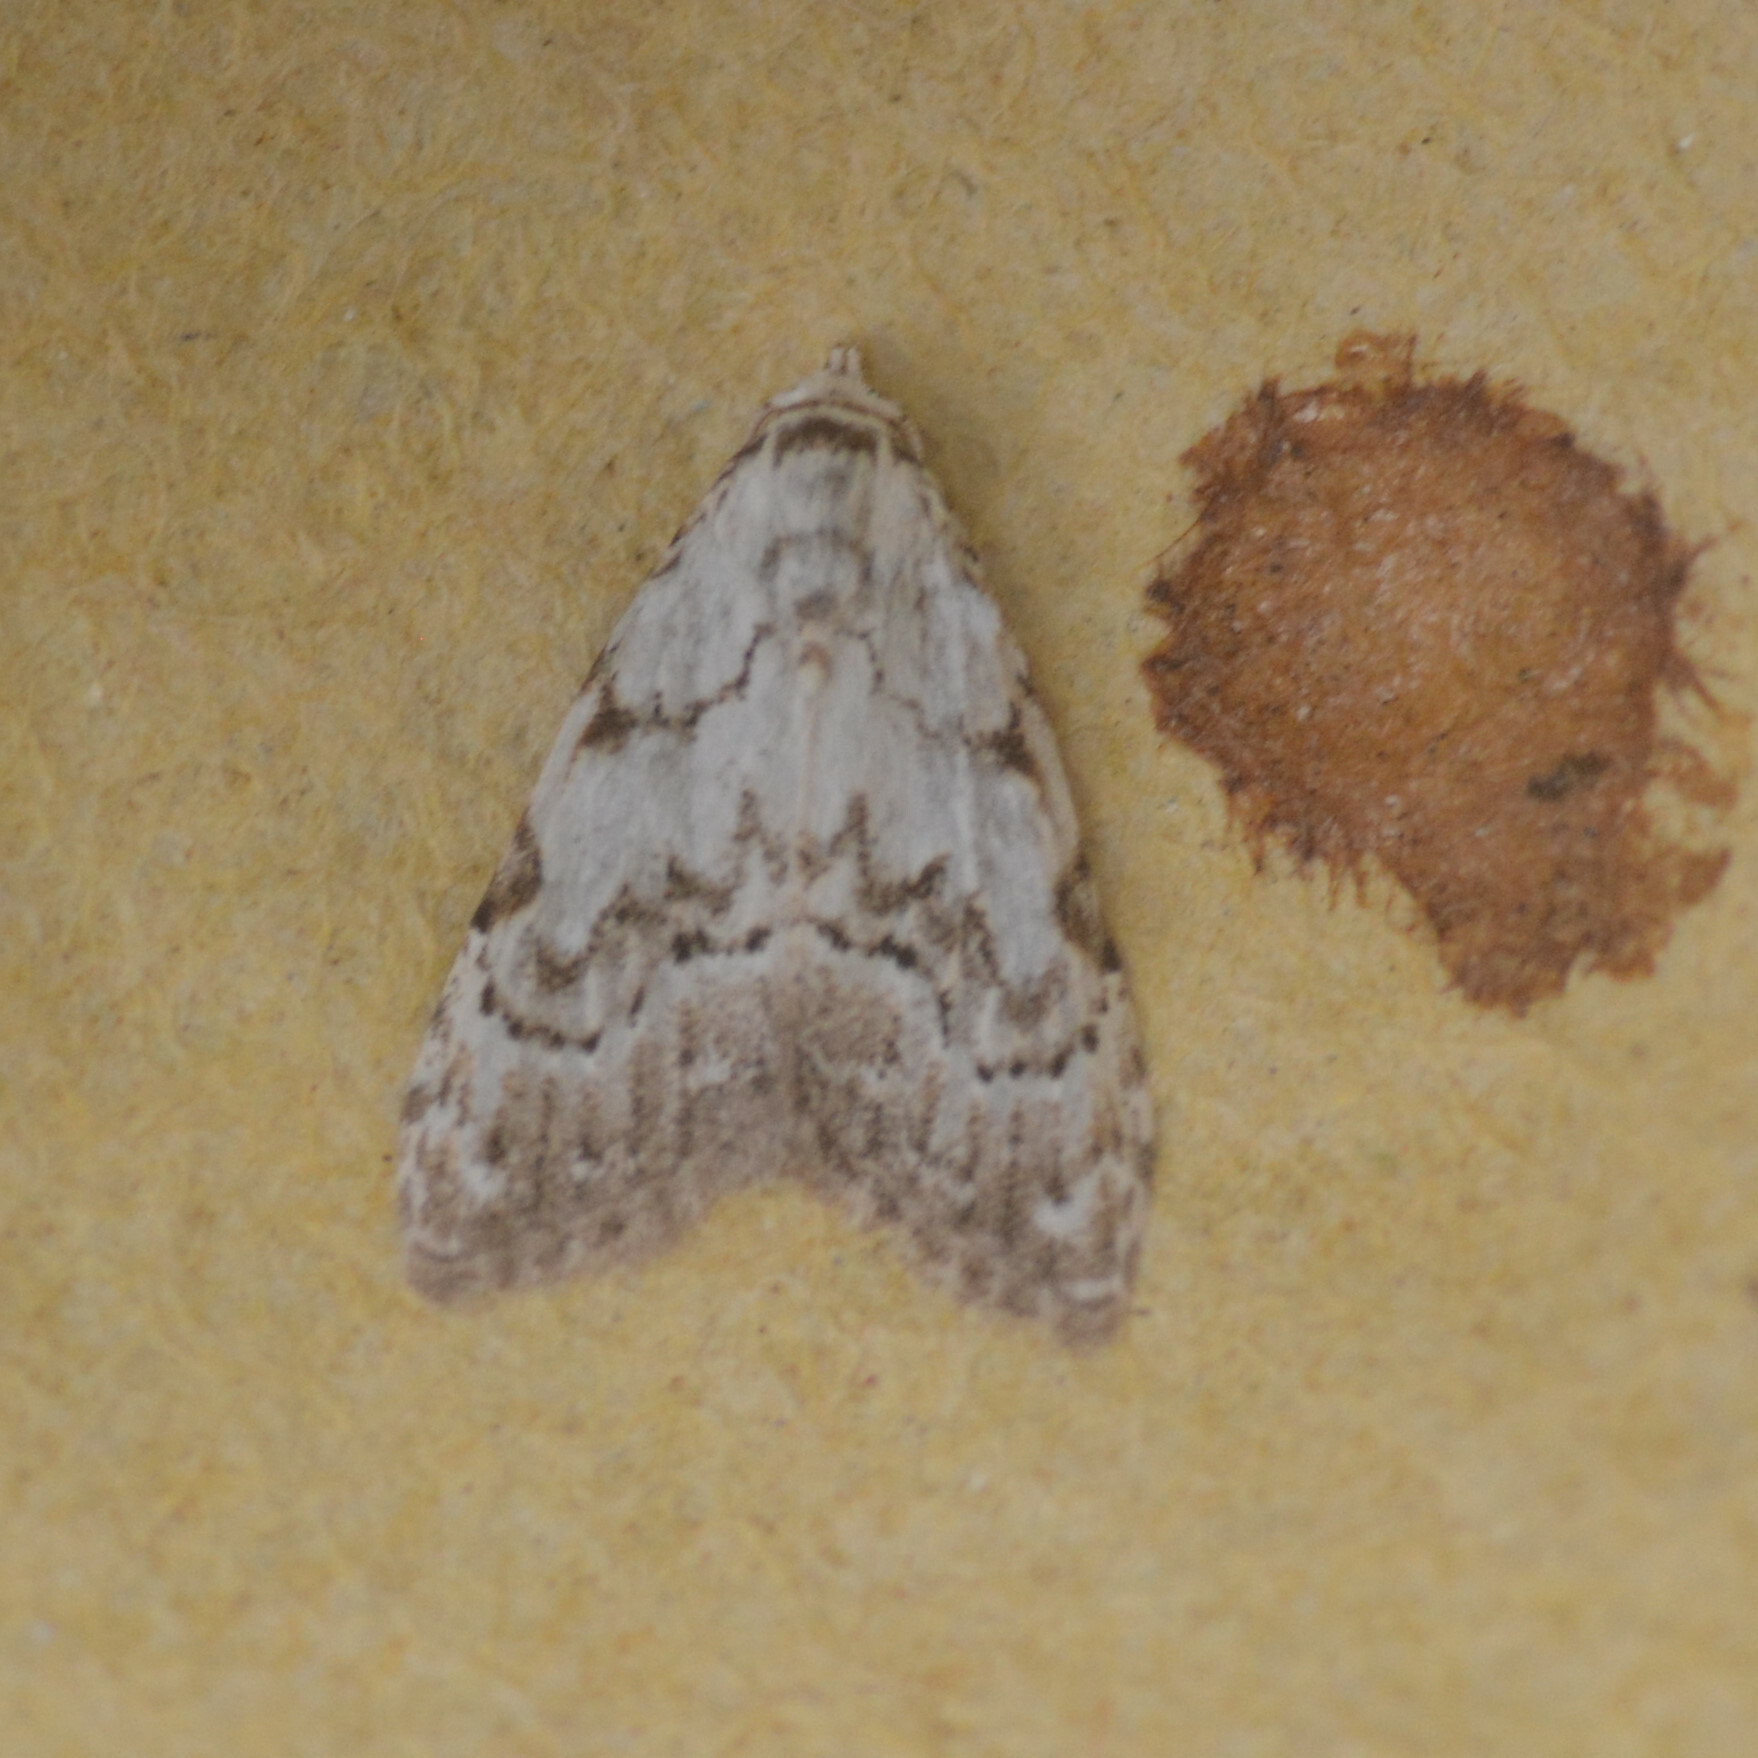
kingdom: Animalia
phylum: Arthropoda
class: Insecta
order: Lepidoptera
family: Nolidae
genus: Nola
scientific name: Nola confusalis
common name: Least black arches
